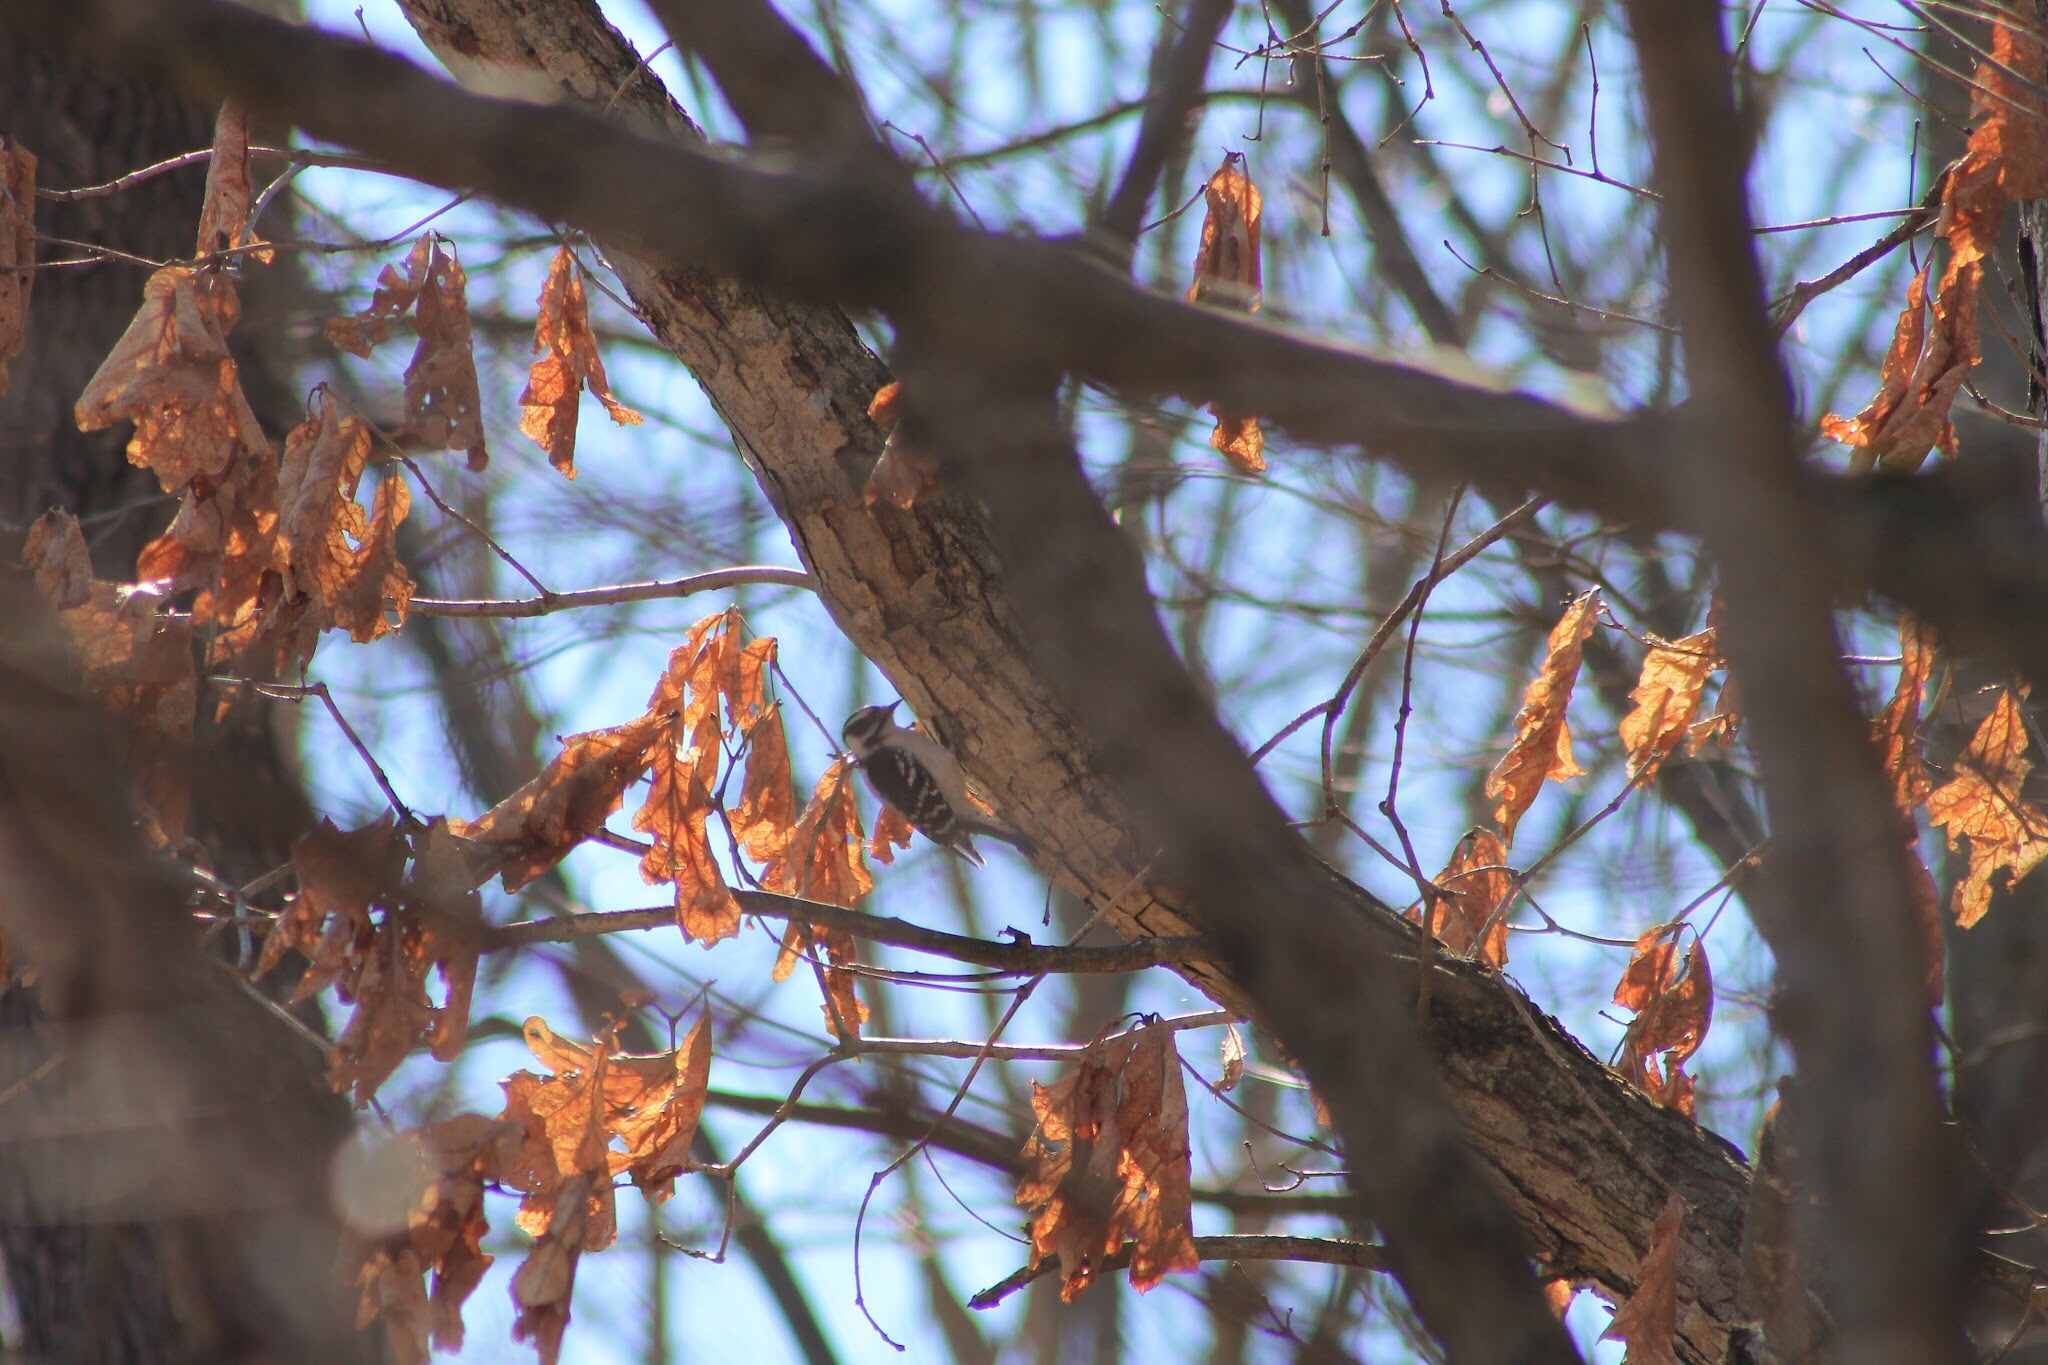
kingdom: Animalia
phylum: Chordata
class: Aves
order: Piciformes
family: Picidae
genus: Dryobates
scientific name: Dryobates pubescens
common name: Downy woodpecker
